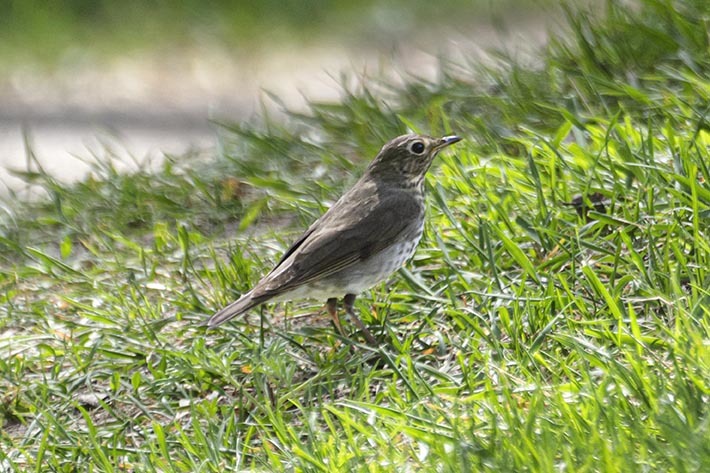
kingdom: Animalia
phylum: Chordata
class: Aves
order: Passeriformes
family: Turdidae
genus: Catharus
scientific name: Catharus ustulatus
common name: Swainson's thrush
